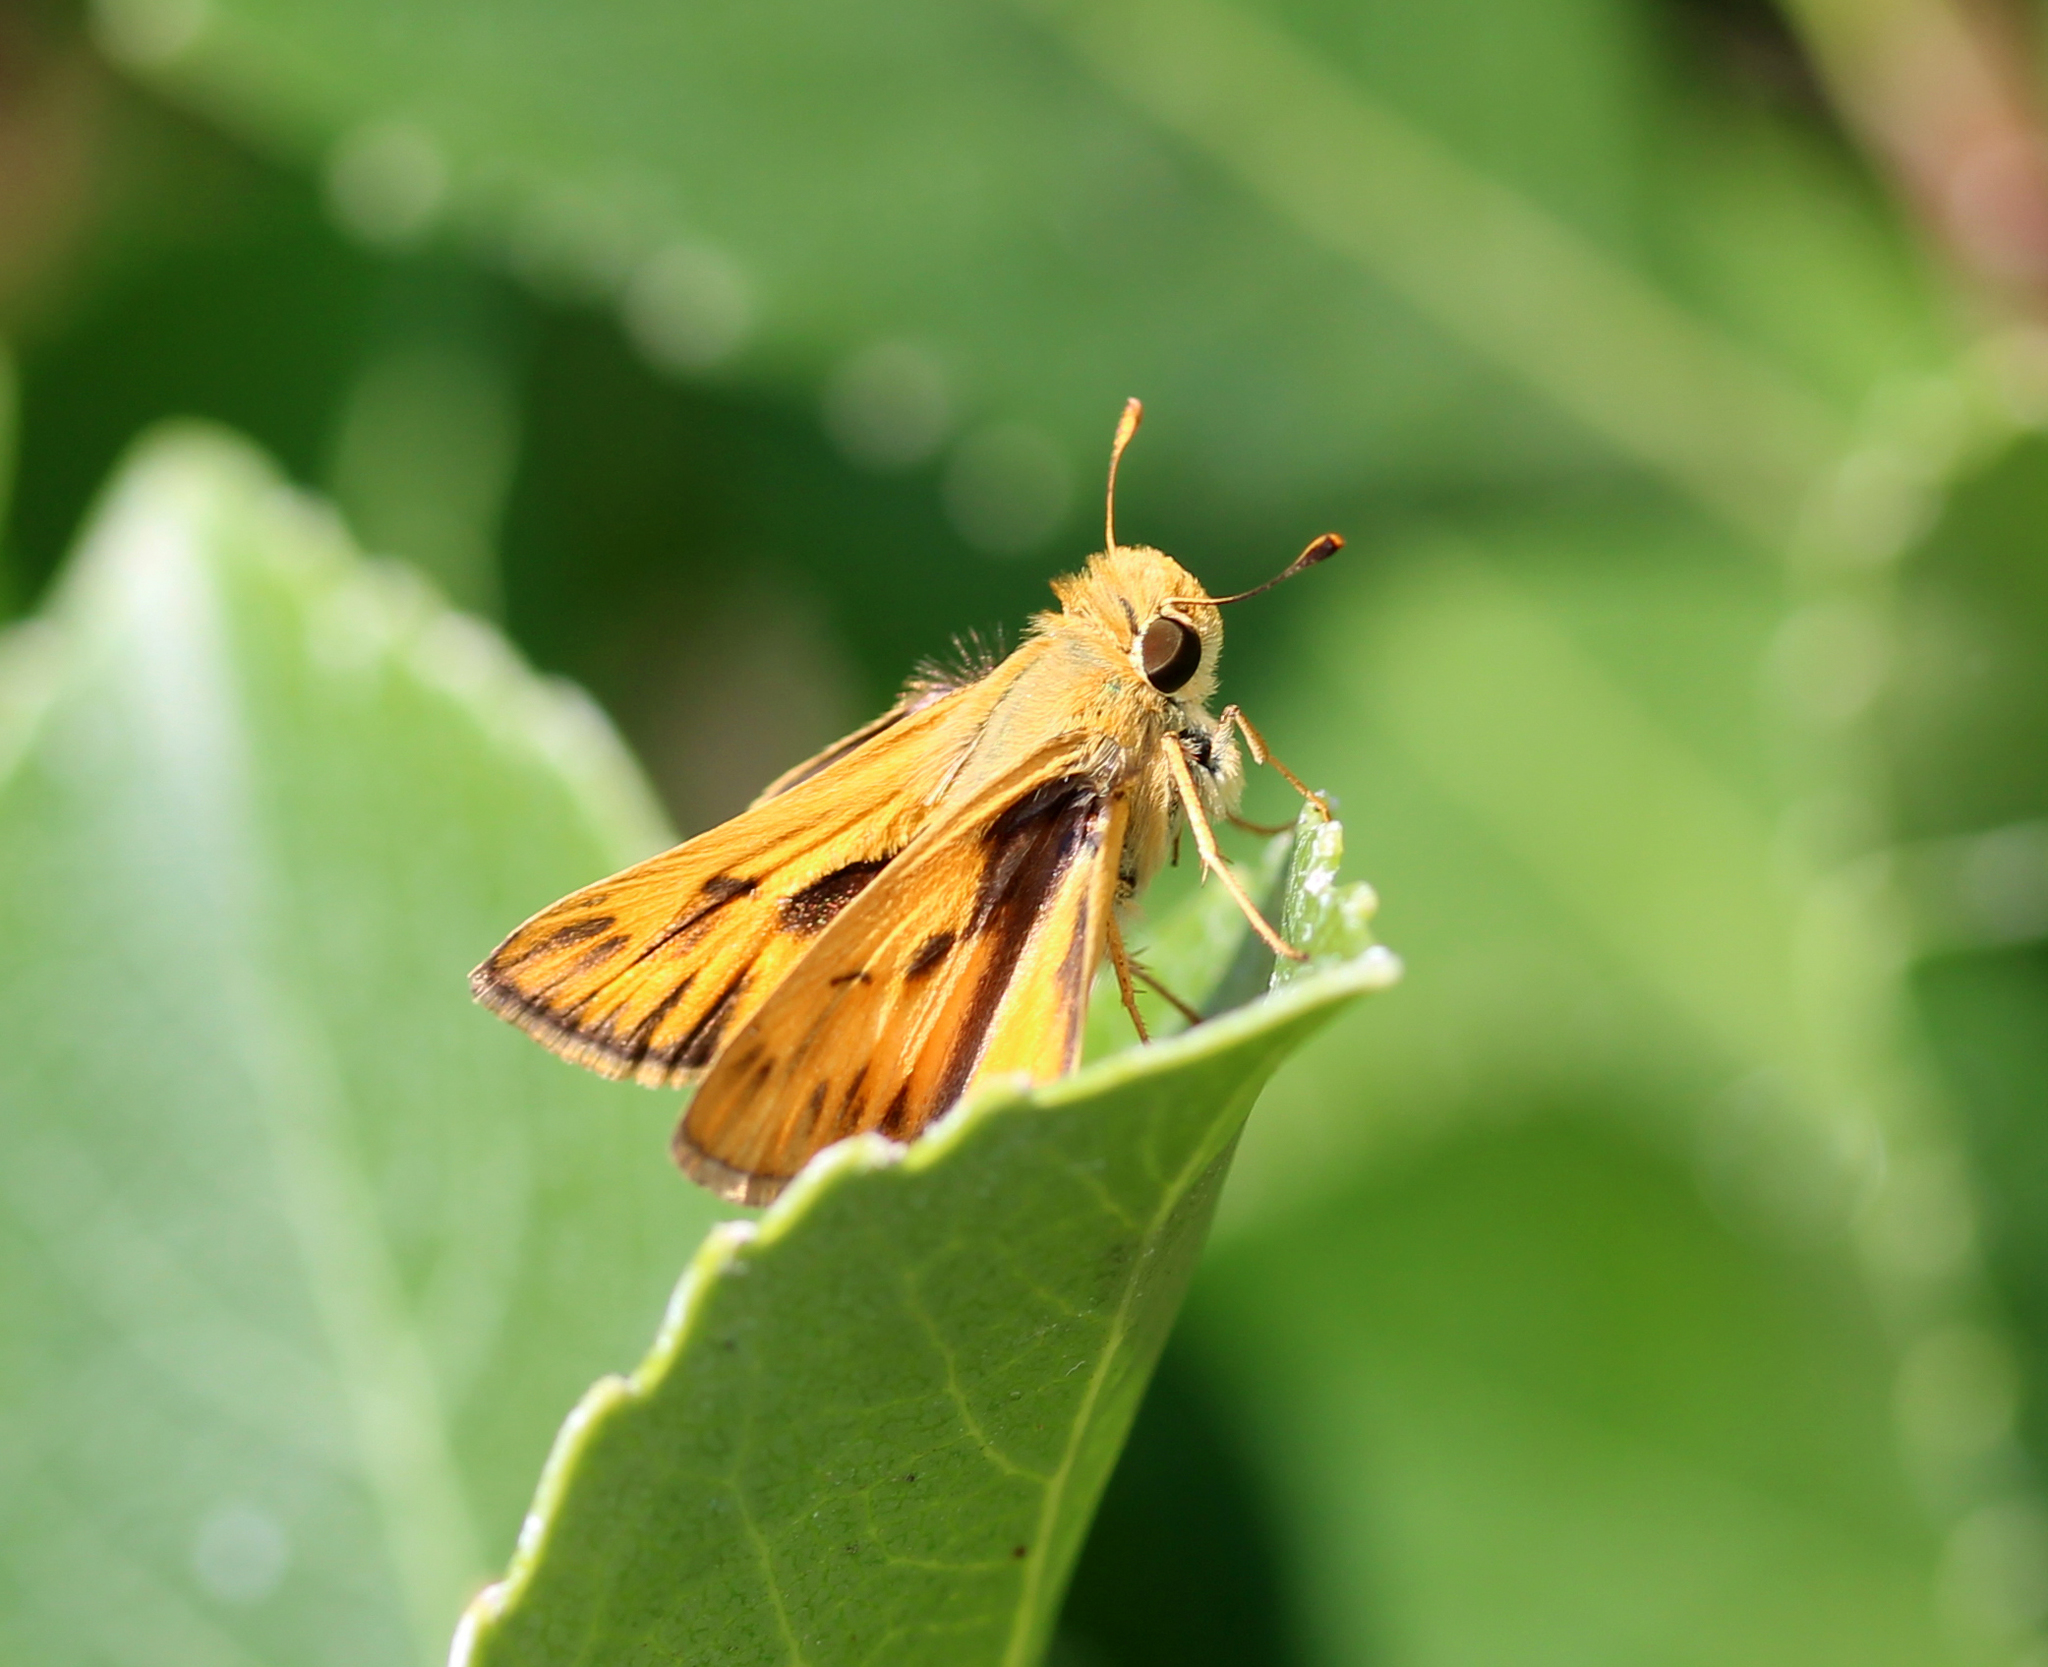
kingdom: Animalia
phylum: Arthropoda
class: Insecta
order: Lepidoptera
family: Hesperiidae
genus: Hylephila
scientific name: Hylephila phyleus
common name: Fiery skipper
